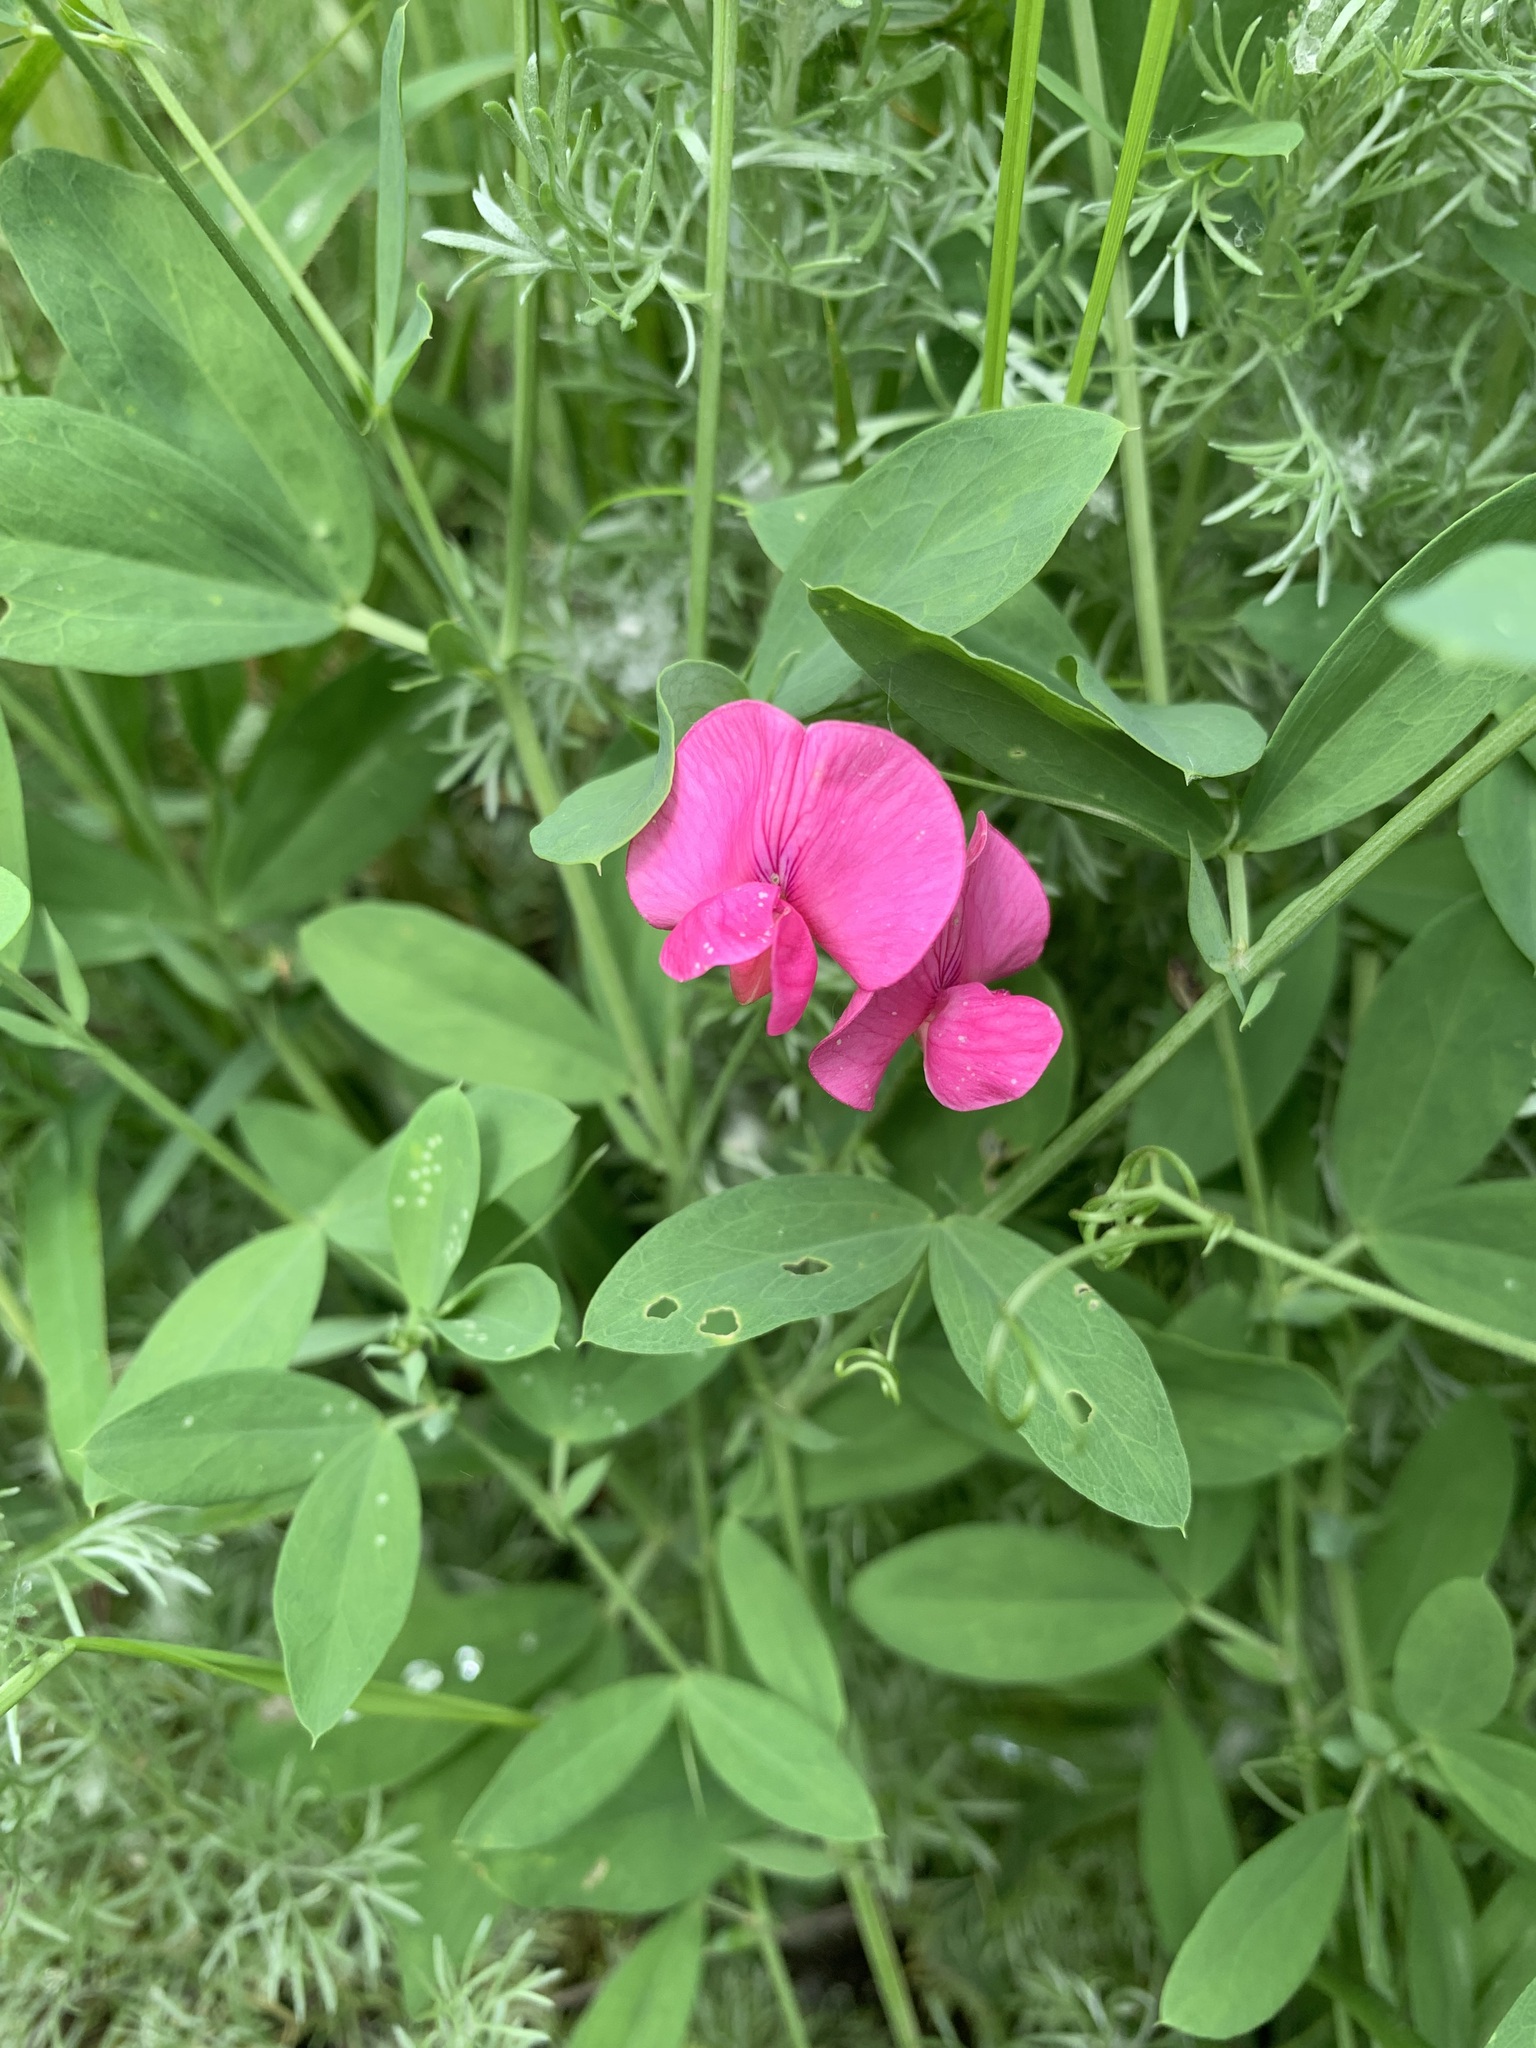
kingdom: Plantae
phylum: Tracheophyta
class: Magnoliopsida
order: Fabales
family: Fabaceae
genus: Lathyrus
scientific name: Lathyrus tuberosus
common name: Tuberous pea
